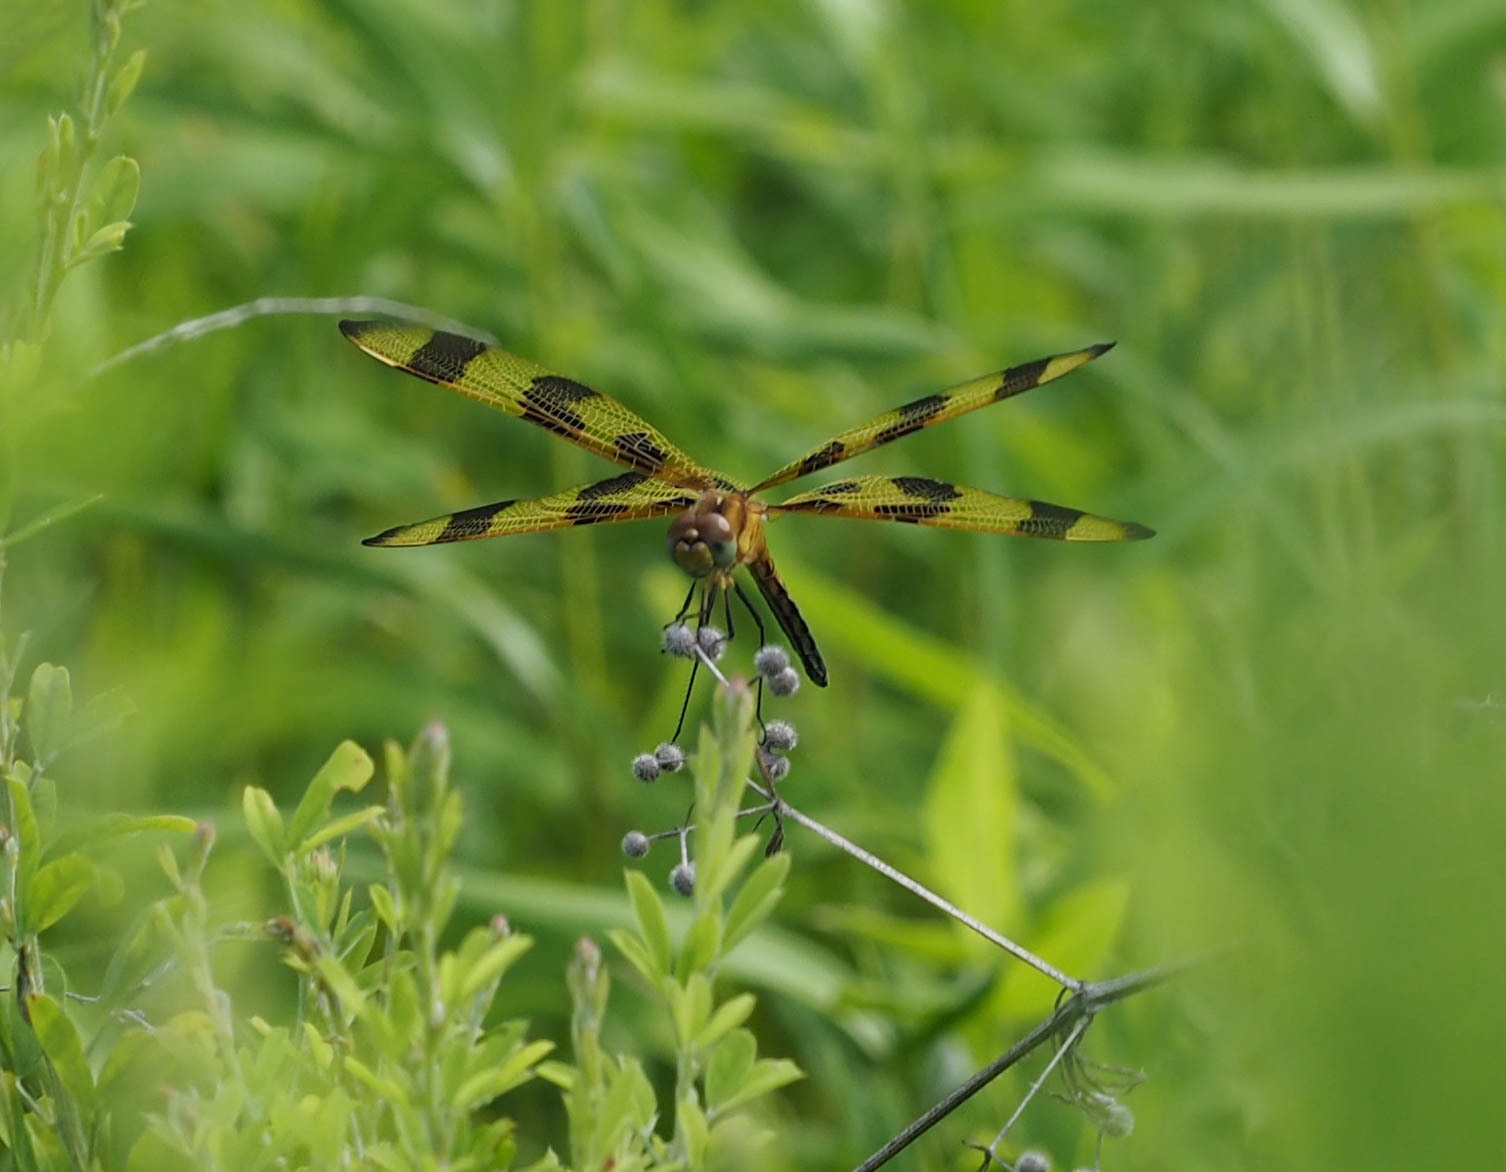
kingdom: Animalia
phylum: Arthropoda
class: Insecta
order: Odonata
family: Libellulidae
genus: Celithemis
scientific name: Celithemis eponina
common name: Halloween pennant
